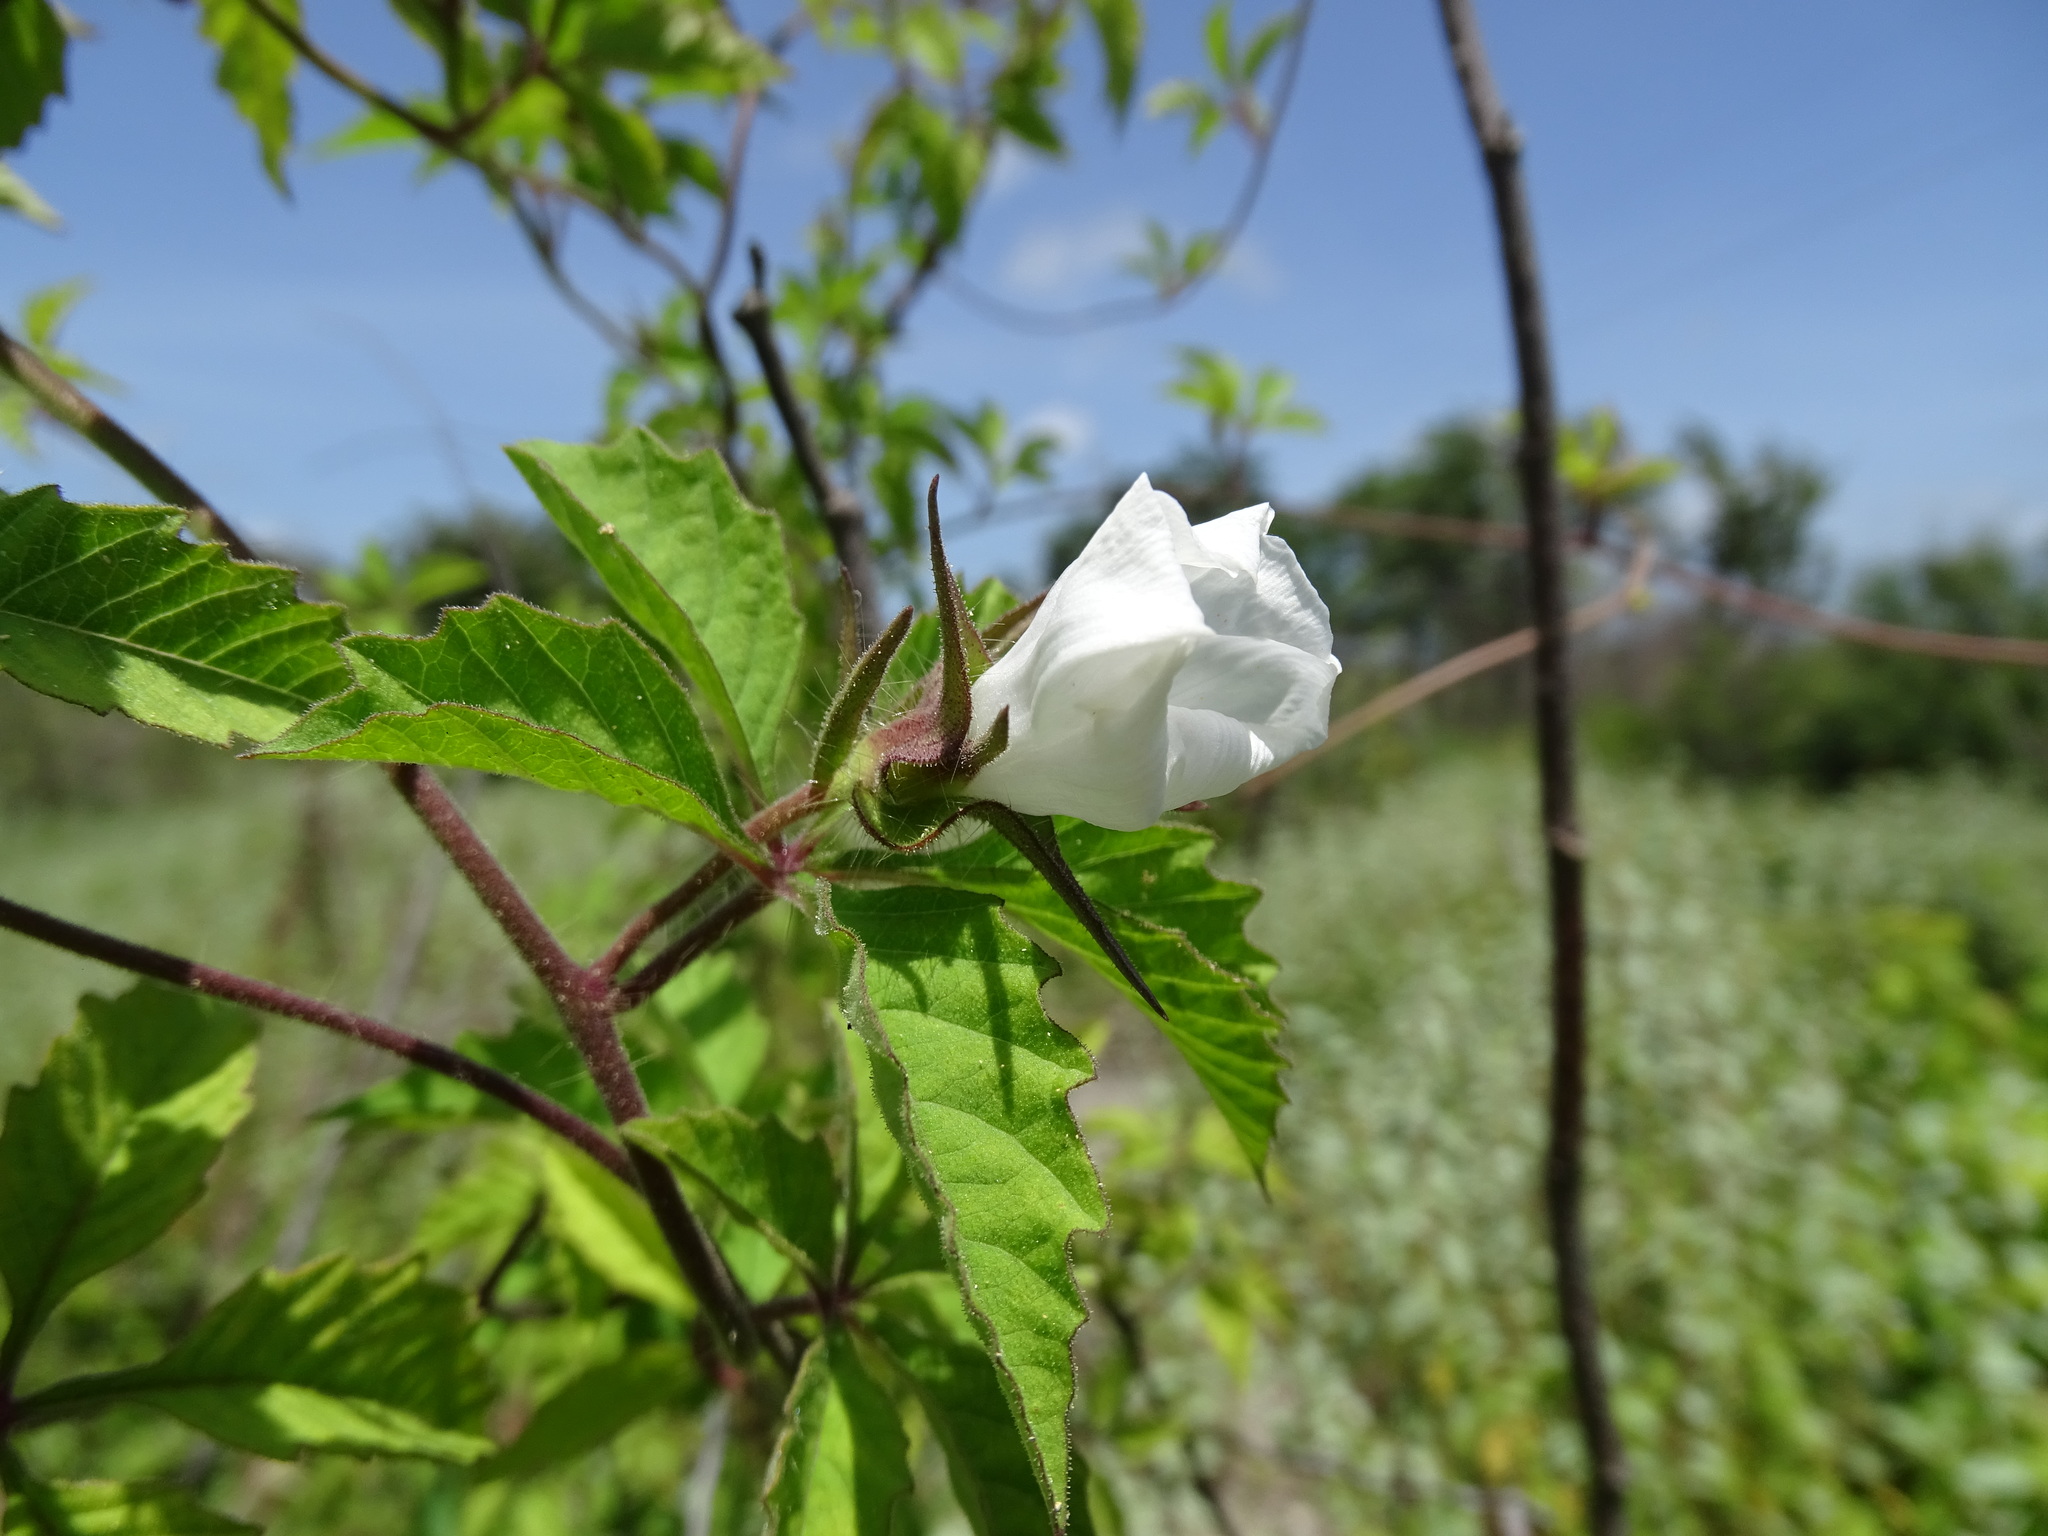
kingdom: Plantae
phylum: Tracheophyta
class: Magnoliopsida
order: Solanales
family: Convolvulaceae
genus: Distimake
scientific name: Distimake cissoides
